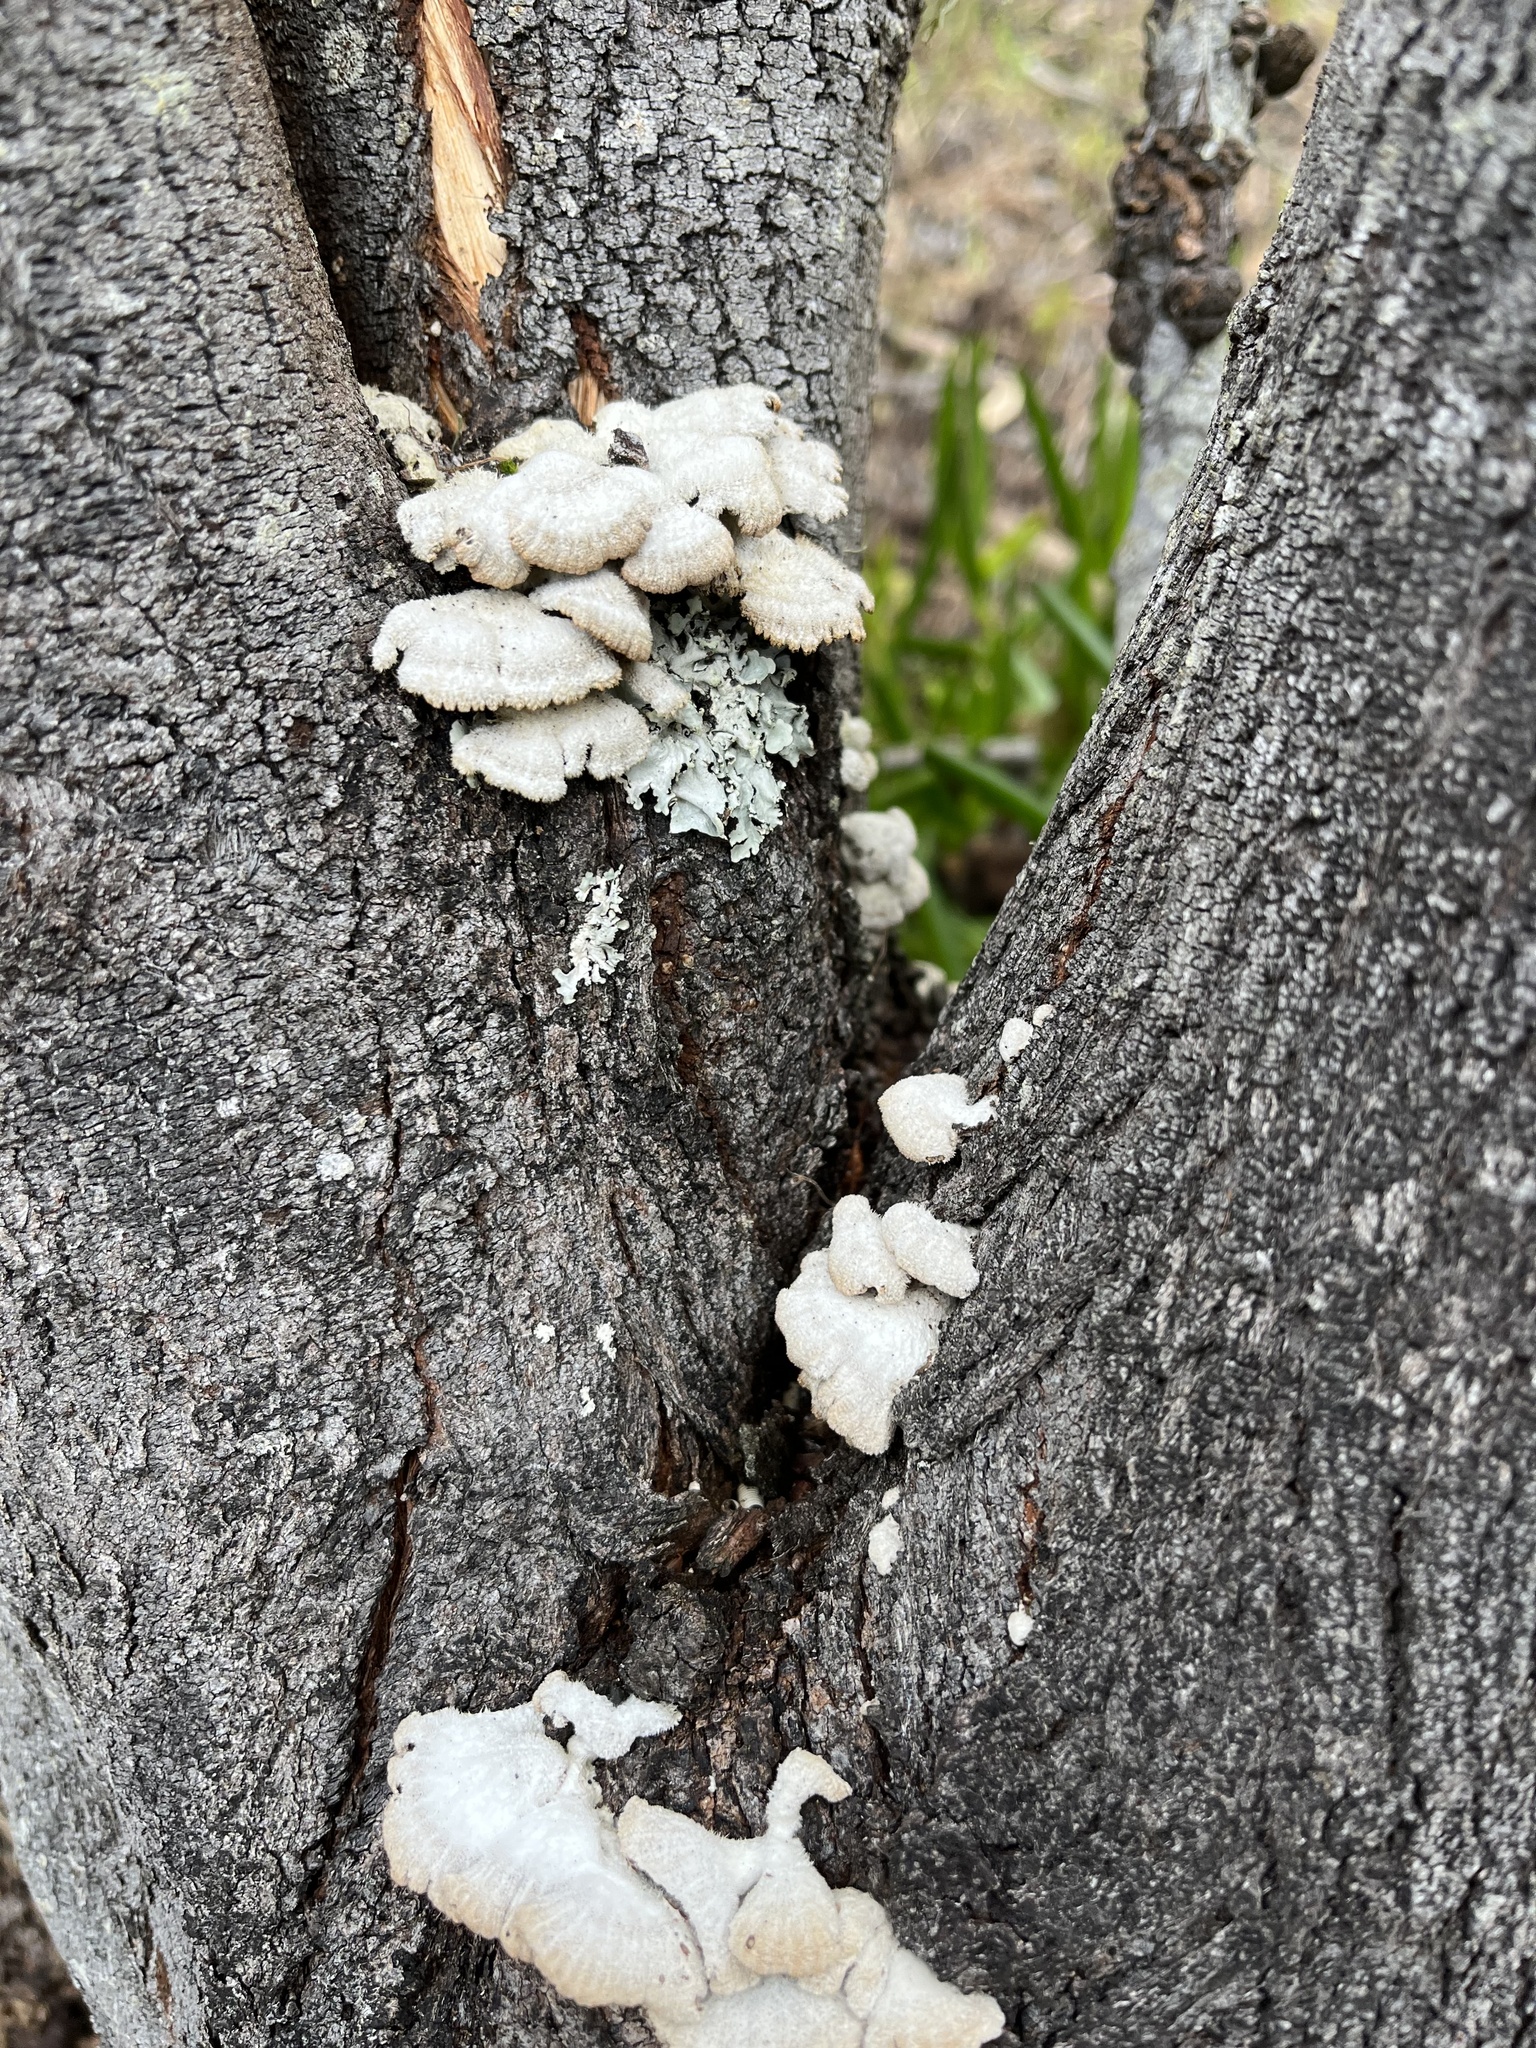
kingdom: Fungi
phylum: Basidiomycota
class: Agaricomycetes
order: Agaricales
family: Schizophyllaceae
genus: Schizophyllum
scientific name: Schizophyllum commune
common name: Common porecrust
